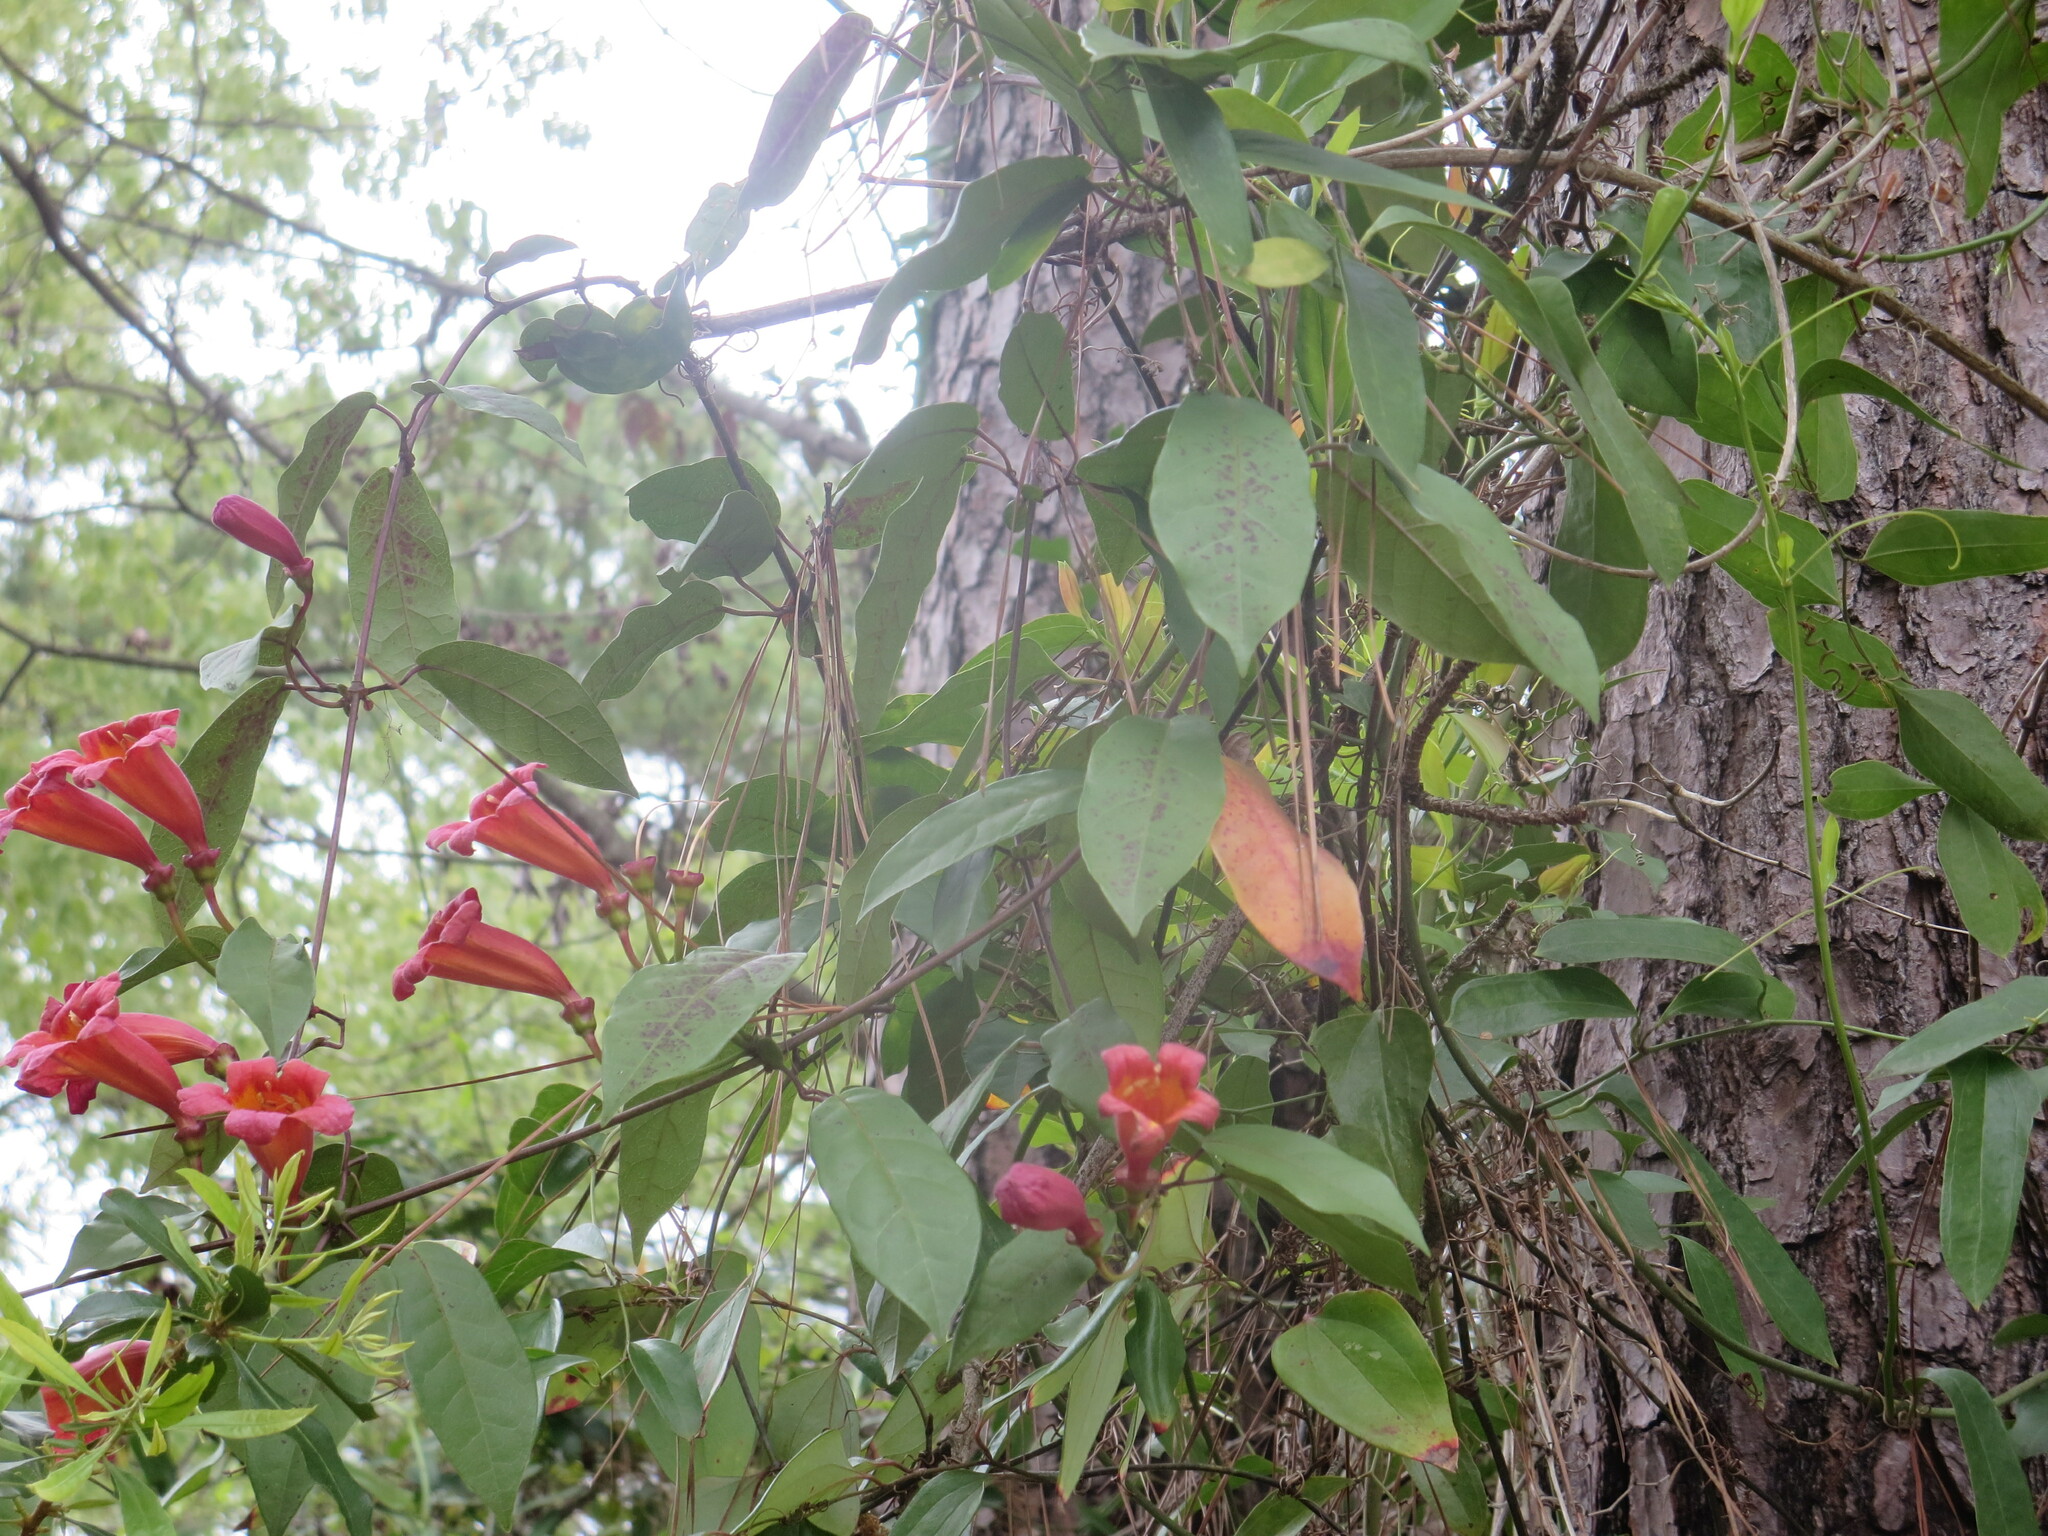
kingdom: Plantae
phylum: Tracheophyta
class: Magnoliopsida
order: Lamiales
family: Bignoniaceae
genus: Bignonia
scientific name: Bignonia capreolata
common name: Crossvine
